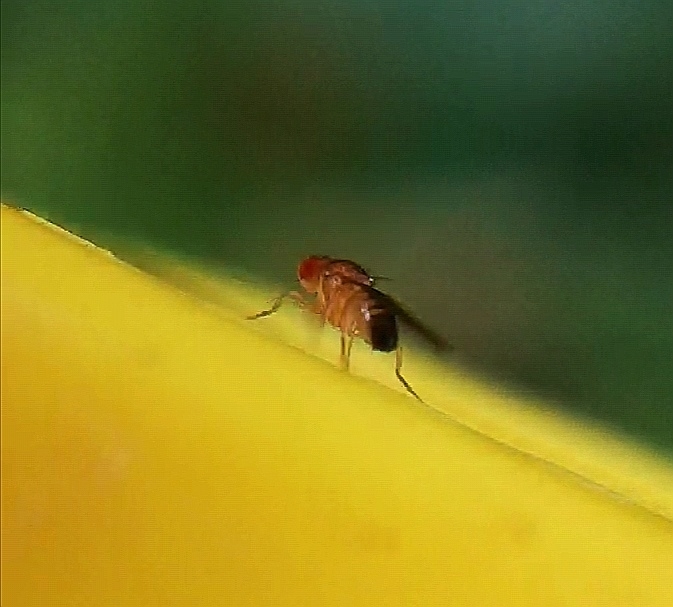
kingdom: Animalia
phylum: Arthropoda
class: Insecta
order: Diptera
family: Drosophilidae
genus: Drosophila
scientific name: Drosophila melanogaster
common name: Pomace fly
